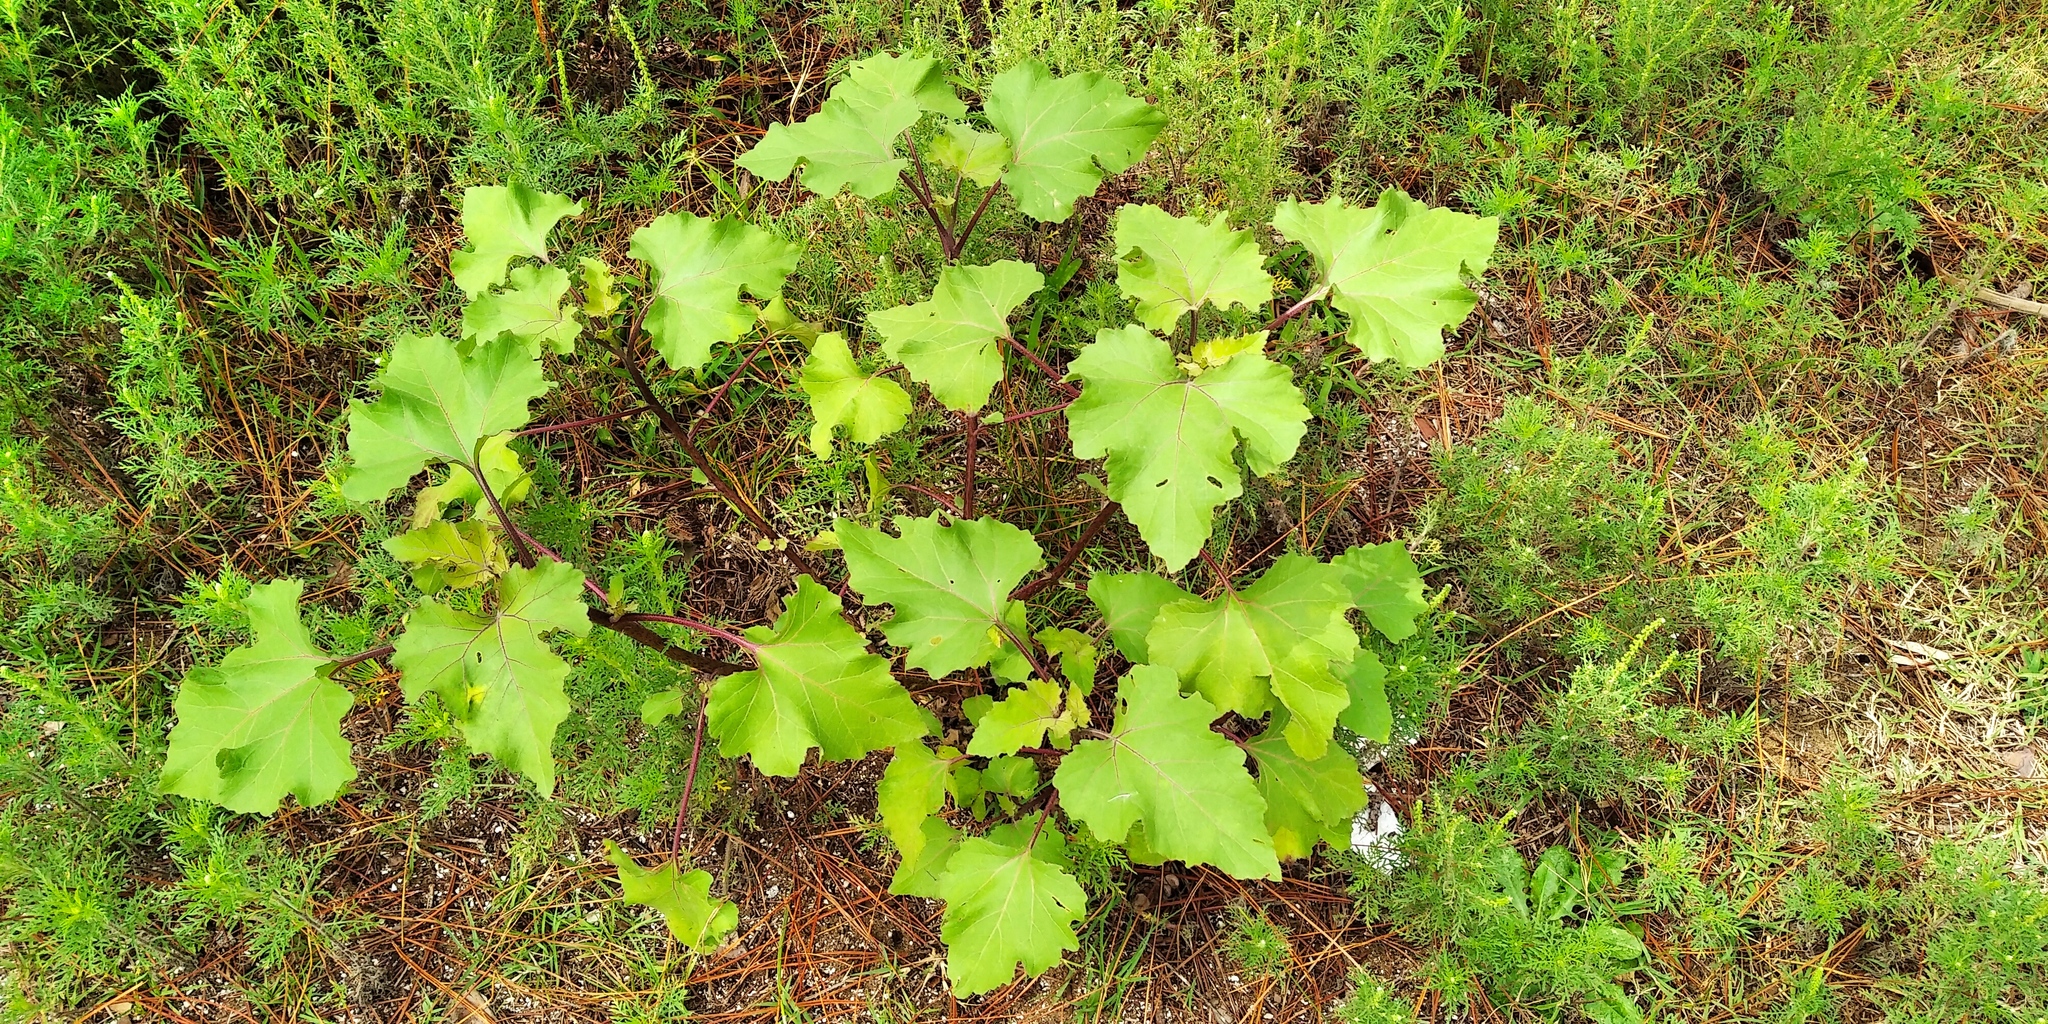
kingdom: Plantae
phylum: Tracheophyta
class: Magnoliopsida
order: Asterales
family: Asteraceae
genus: Xanthium
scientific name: Xanthium orientale
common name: Californian burr
